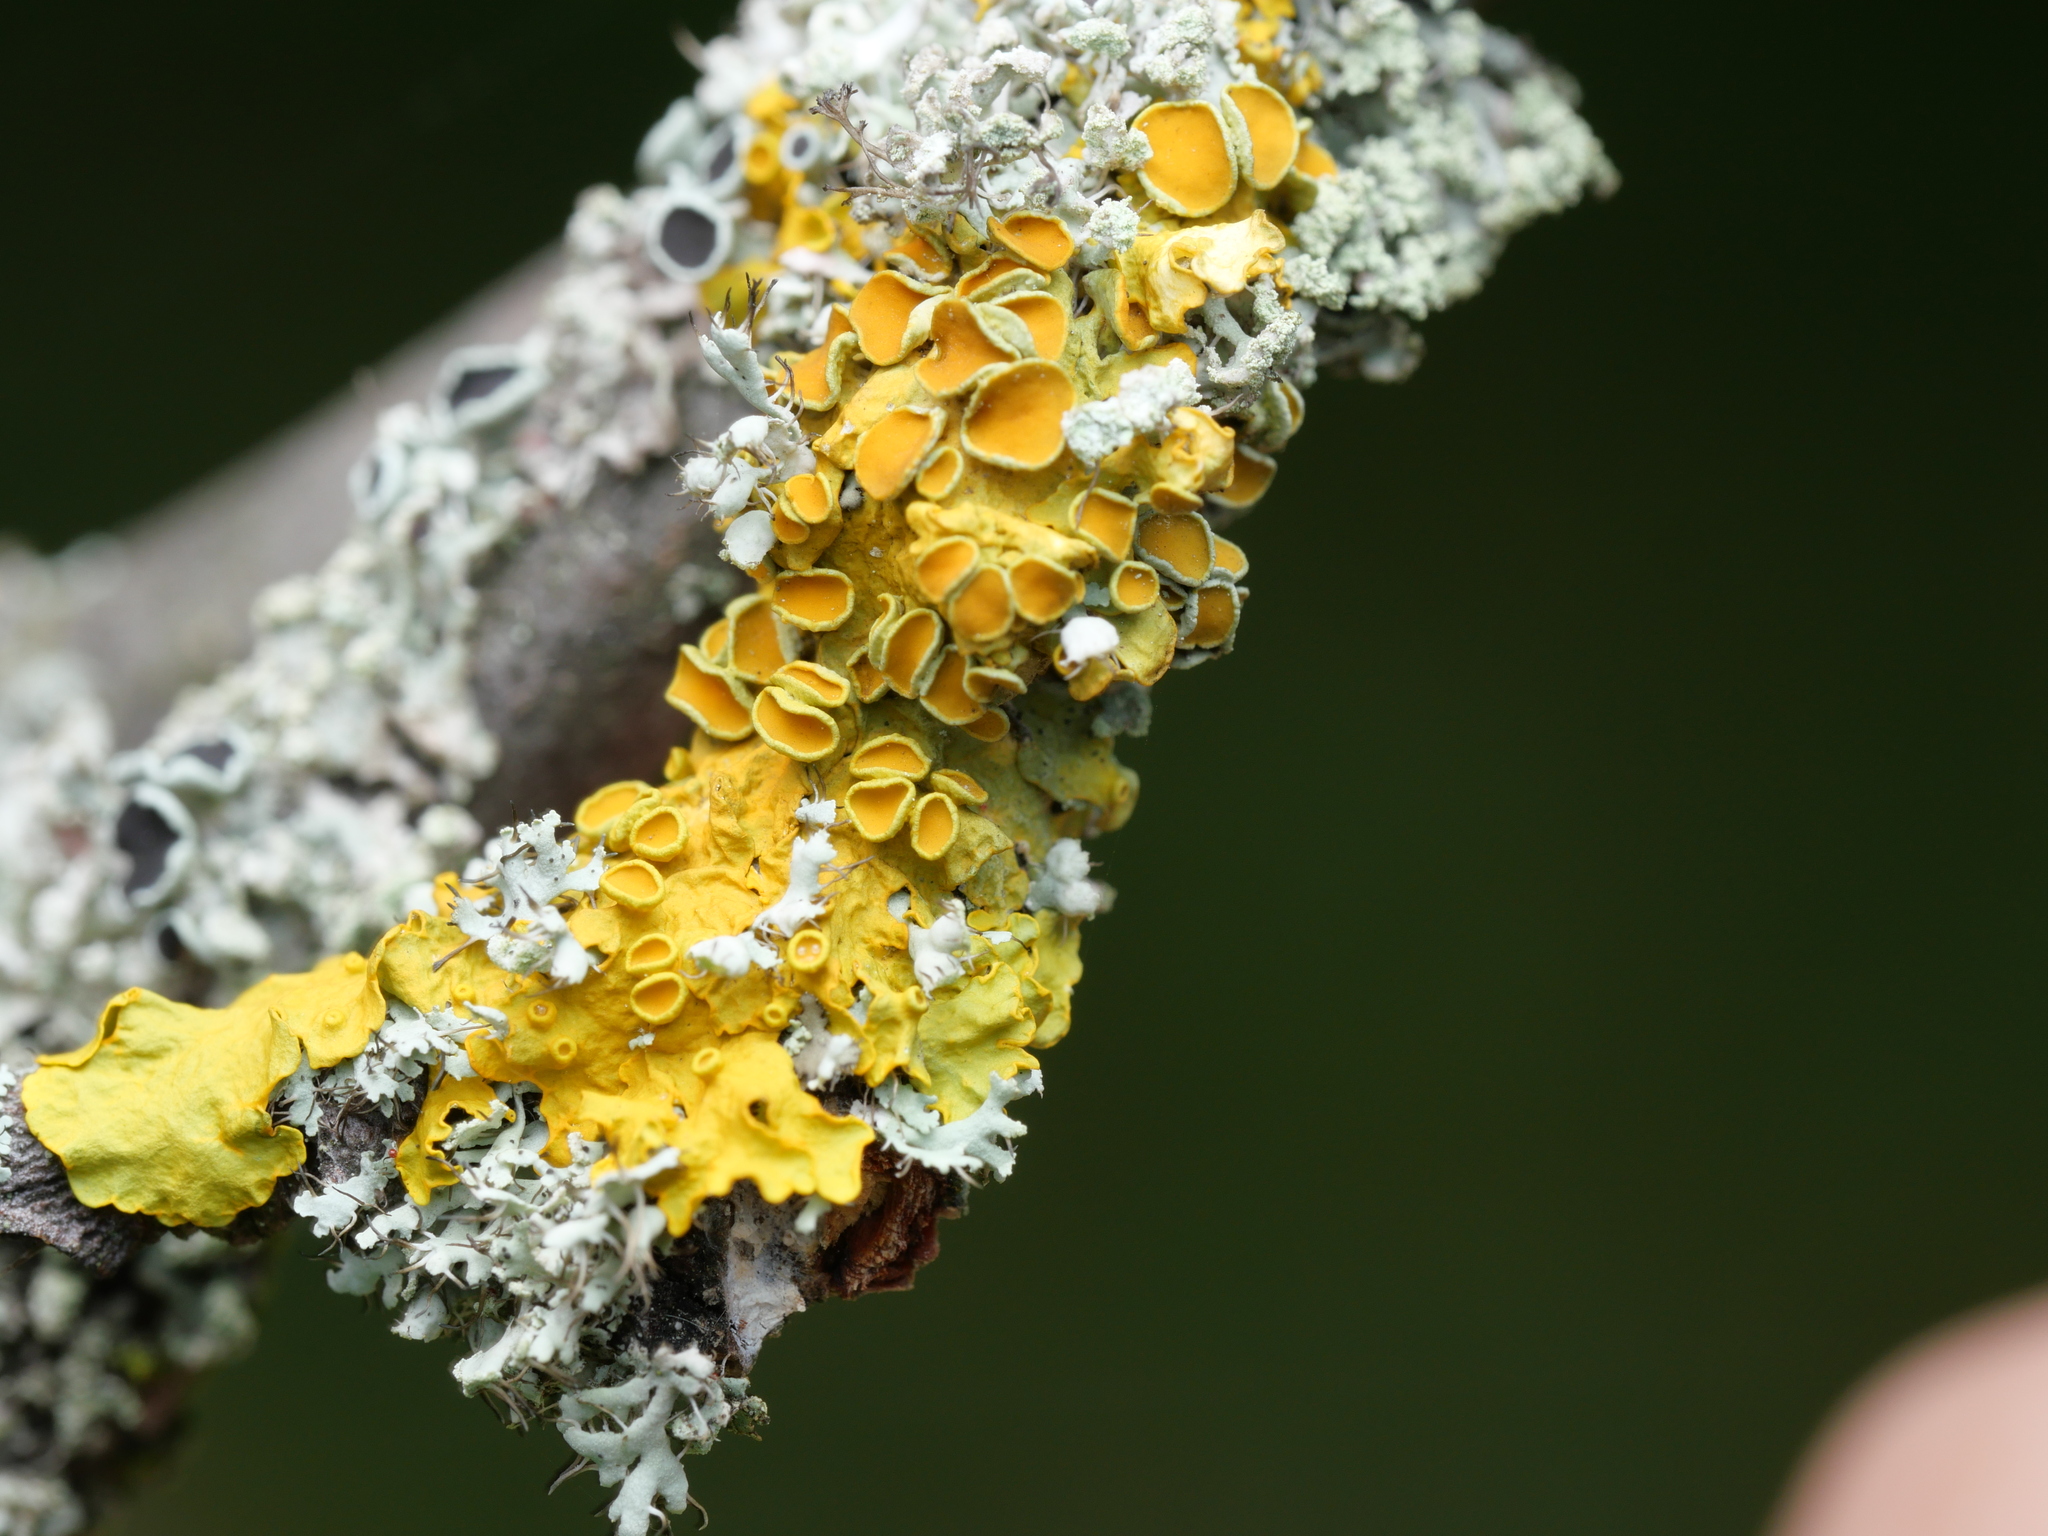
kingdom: Fungi
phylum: Ascomycota
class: Lecanoromycetes
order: Teloschistales
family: Teloschistaceae
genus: Xanthoria
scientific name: Xanthoria parietina
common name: Common orange lichen
